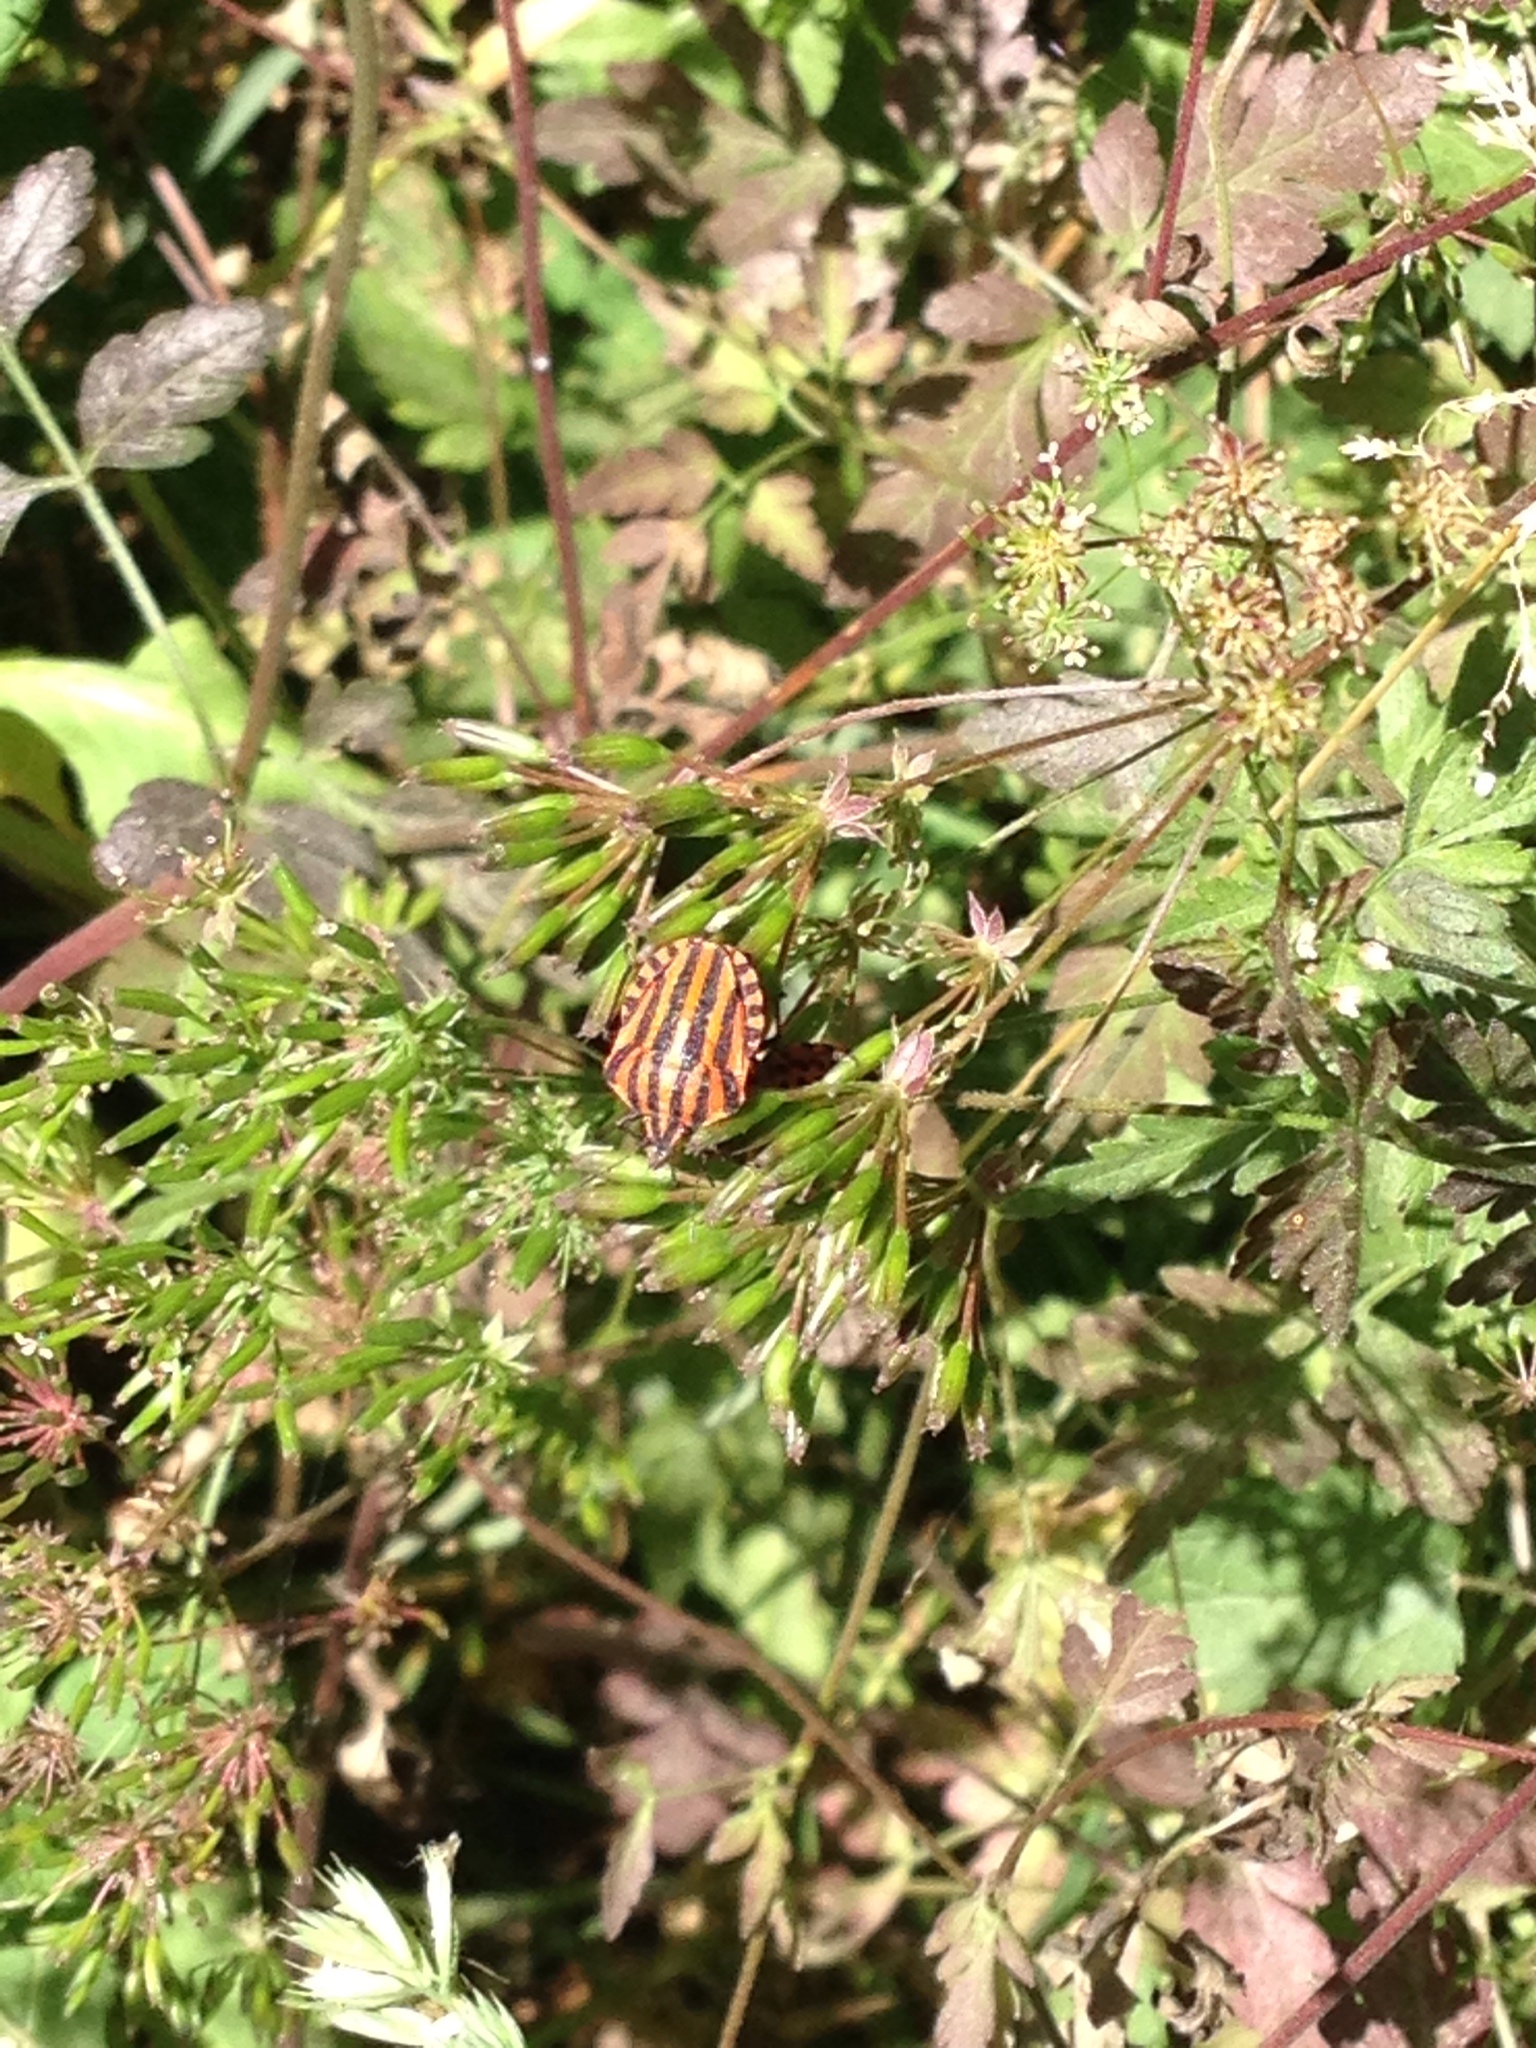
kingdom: Animalia
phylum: Arthropoda
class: Insecta
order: Hemiptera
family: Pentatomidae
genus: Graphosoma
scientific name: Graphosoma italicum
